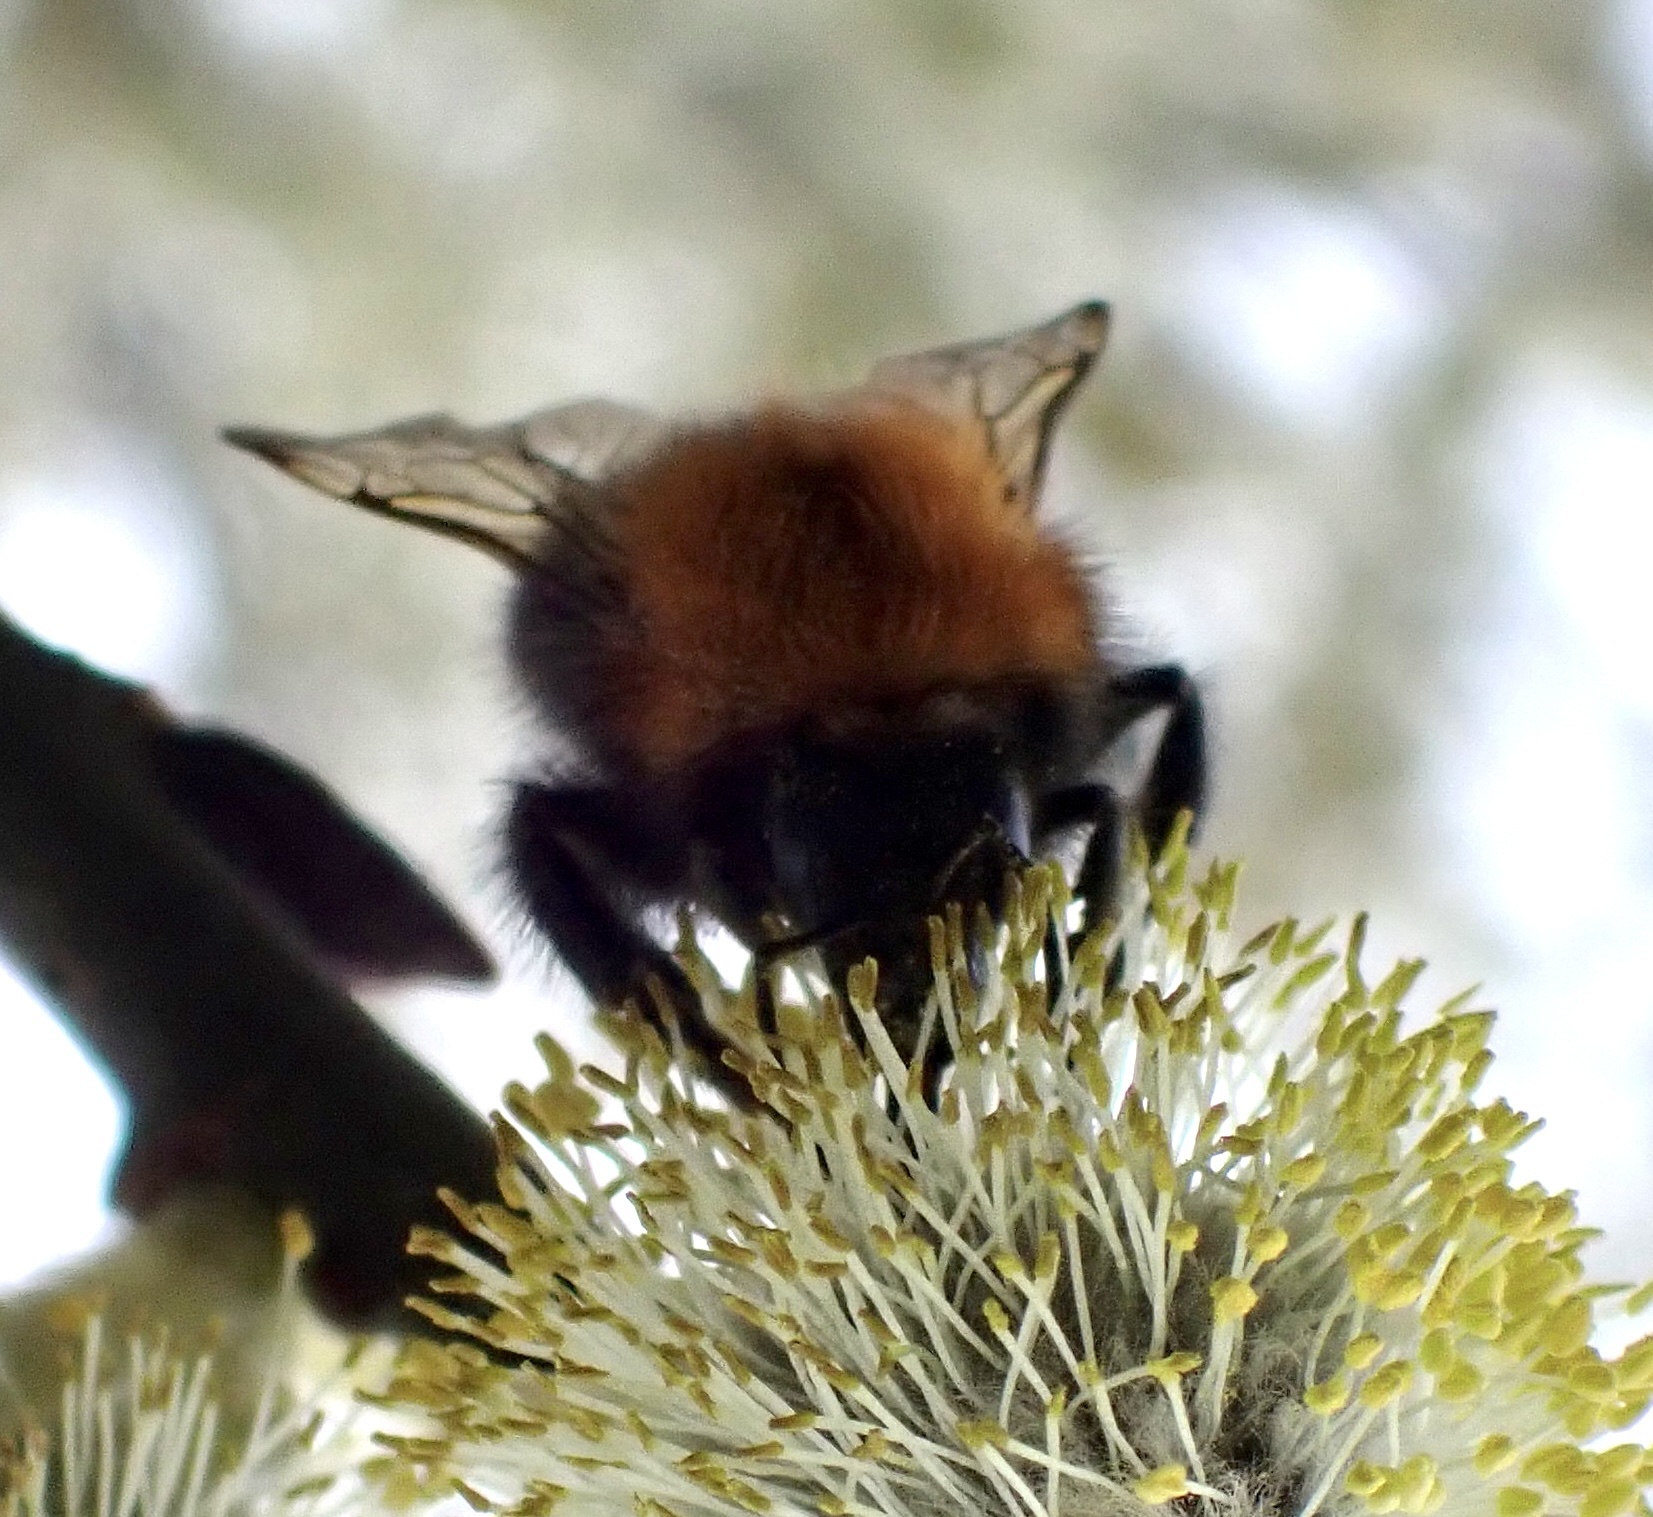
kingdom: Animalia
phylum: Arthropoda
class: Insecta
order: Hymenoptera
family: Apidae
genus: Bombus
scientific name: Bombus hypnorum
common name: New garden bumblebee
